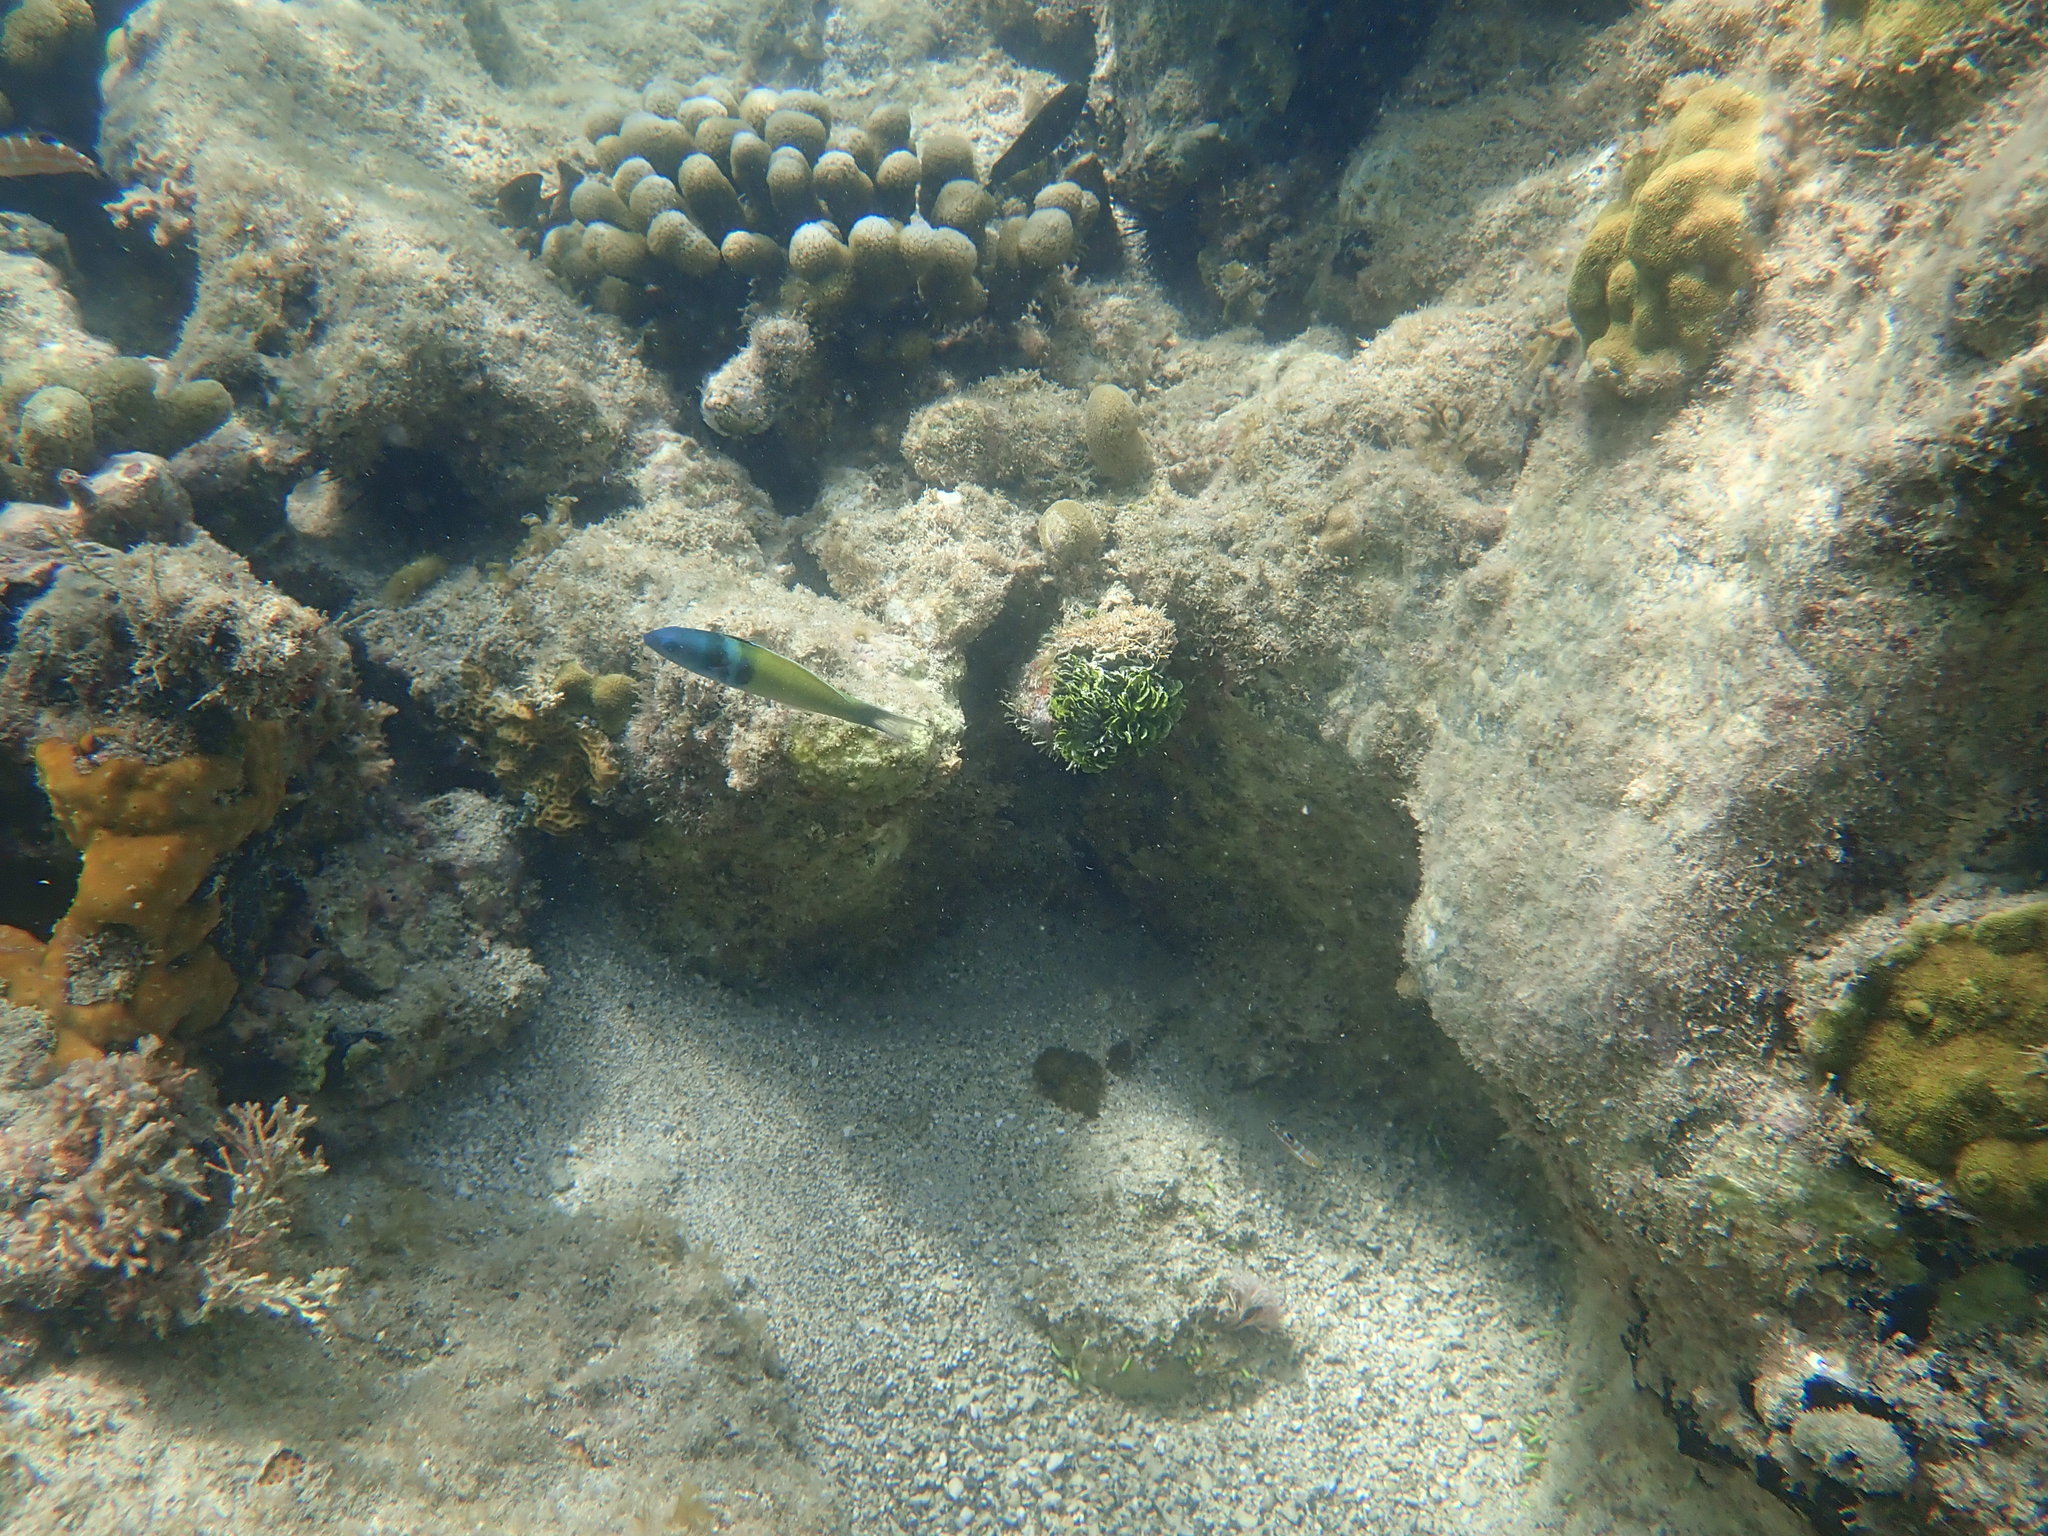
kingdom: Animalia
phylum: Chordata
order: Perciformes
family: Labridae
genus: Thalassoma
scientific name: Thalassoma bifasciatum
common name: Bluehead wrasse
